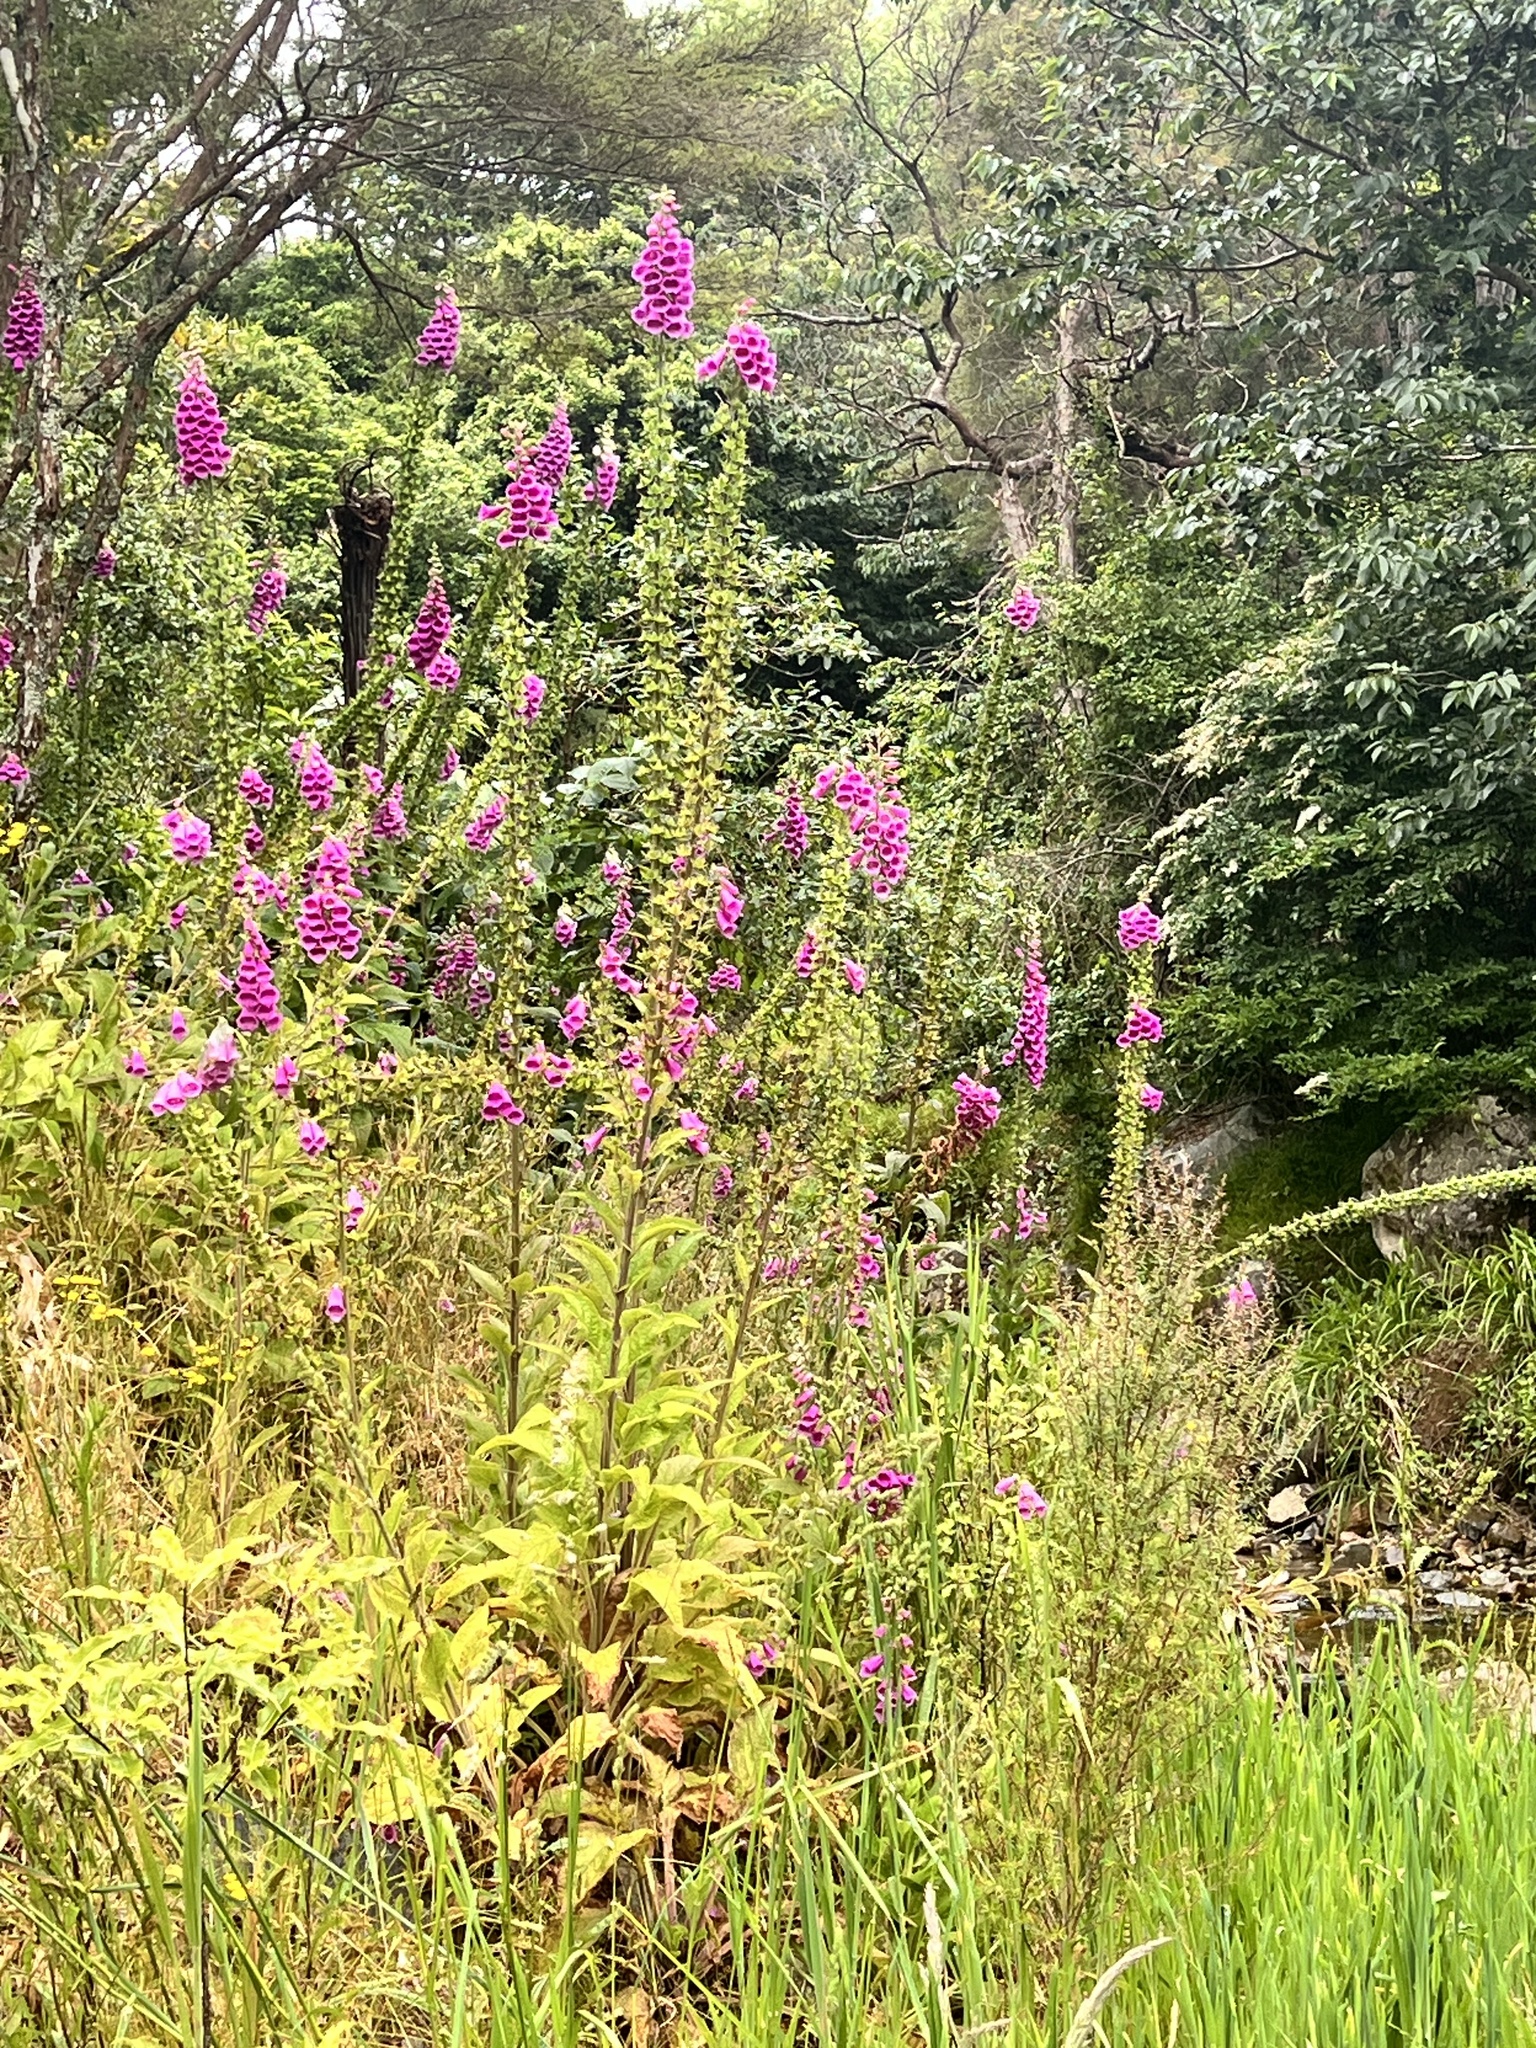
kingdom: Plantae
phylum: Tracheophyta
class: Magnoliopsida
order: Lamiales
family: Plantaginaceae
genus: Digitalis
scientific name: Digitalis purpurea
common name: Foxglove
